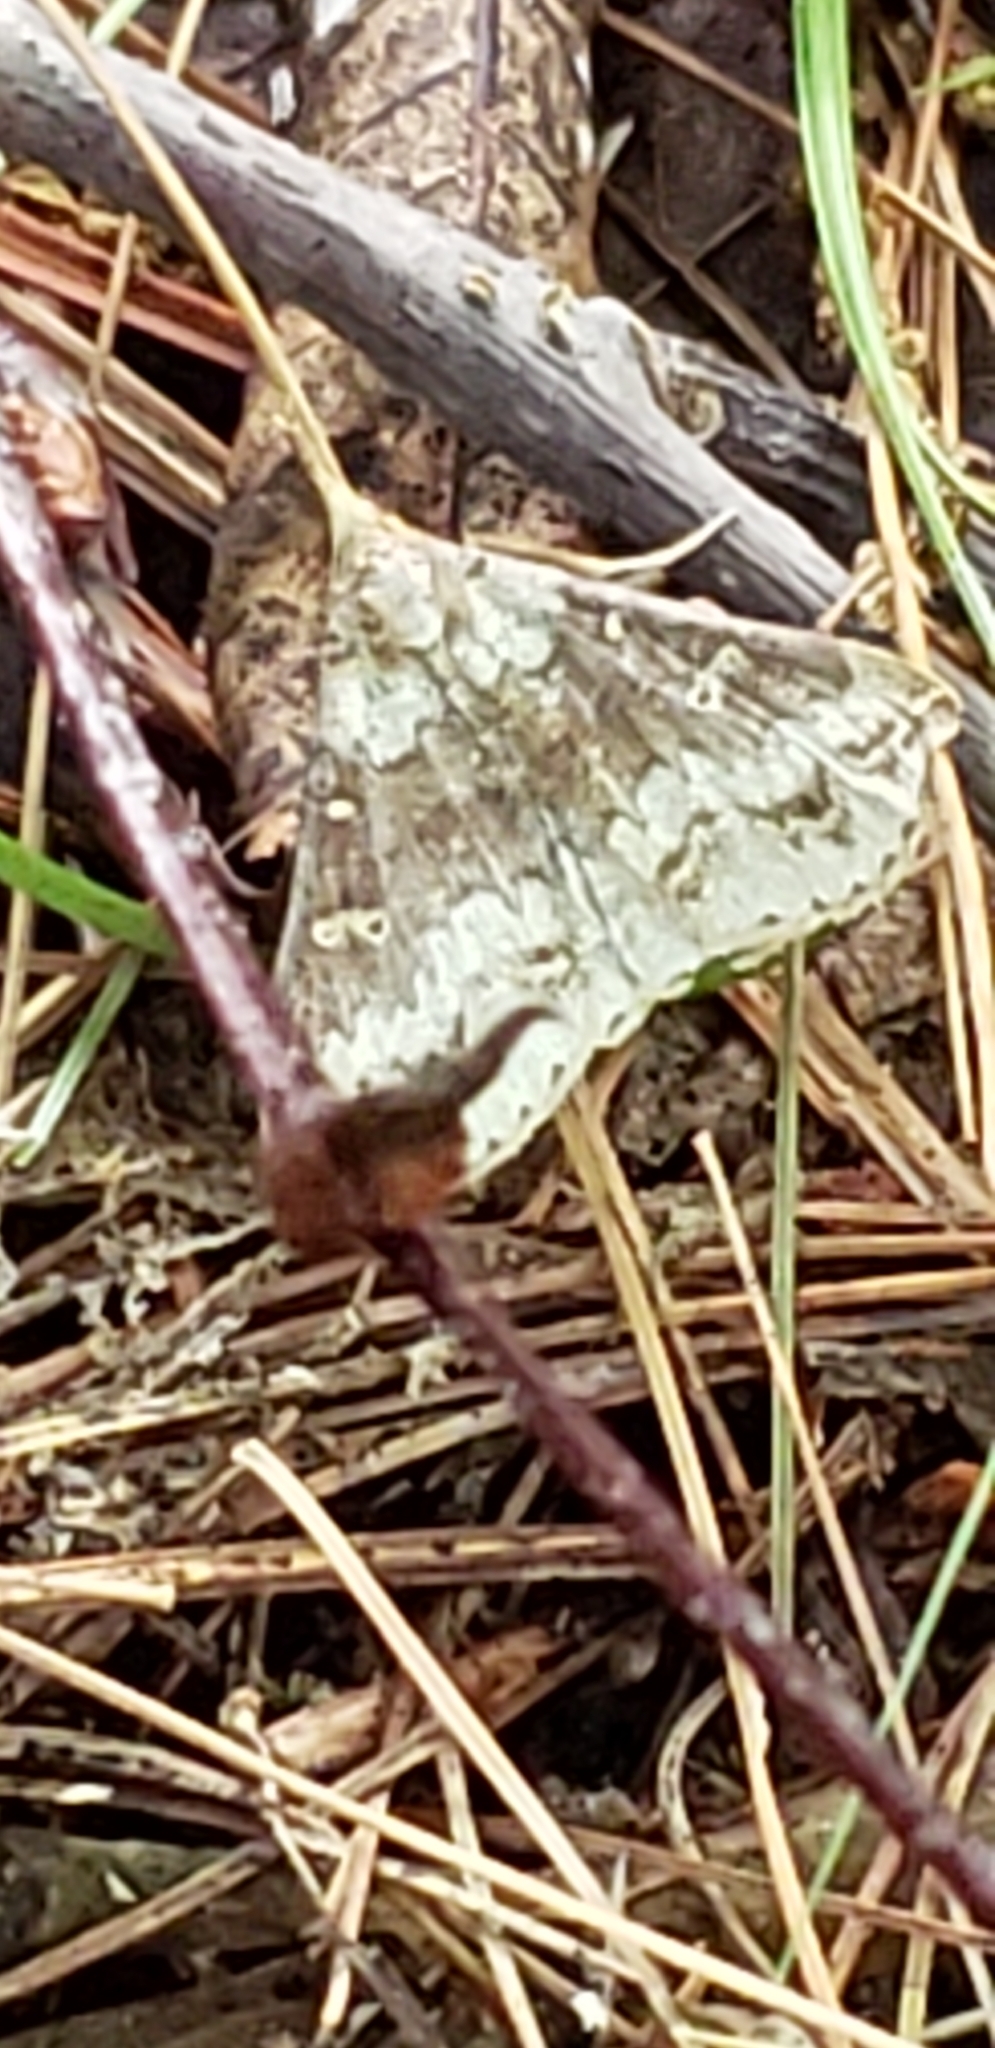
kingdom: Animalia
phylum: Arthropoda
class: Insecta
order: Lepidoptera
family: Erebidae
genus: Renia
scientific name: Renia discoloralis
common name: Discolored renia moth
